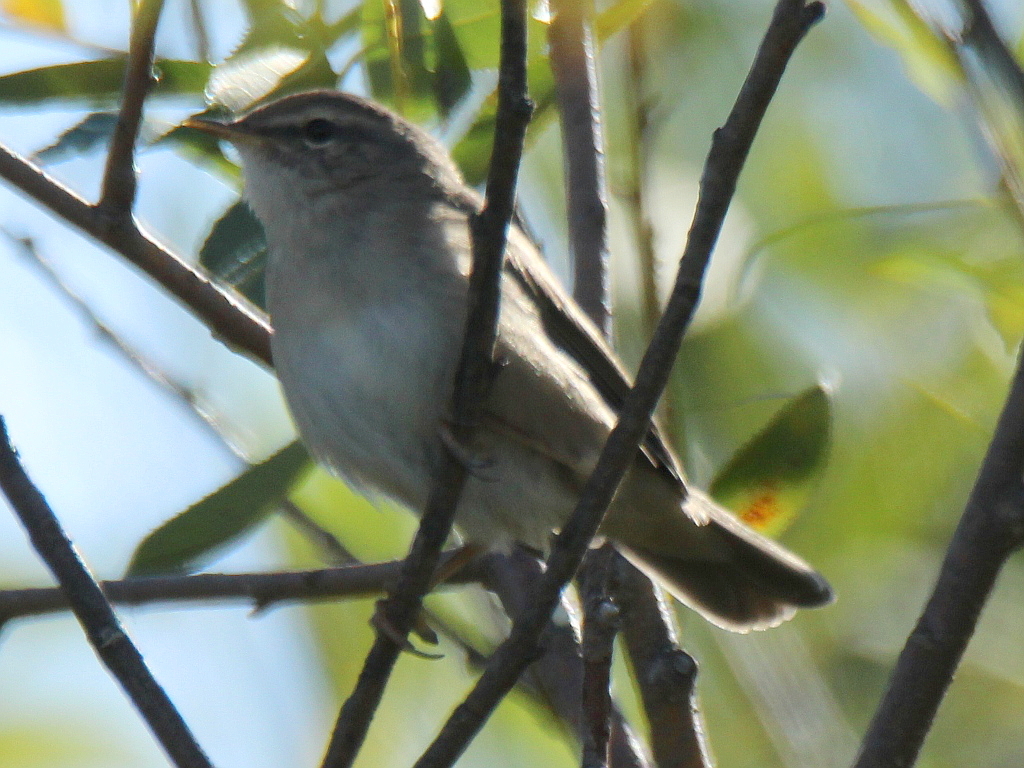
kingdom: Animalia
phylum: Chordata
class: Aves
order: Passeriformes
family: Phylloscopidae
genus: Phylloscopus
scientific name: Phylloscopus fuscatus
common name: Dusky warbler
